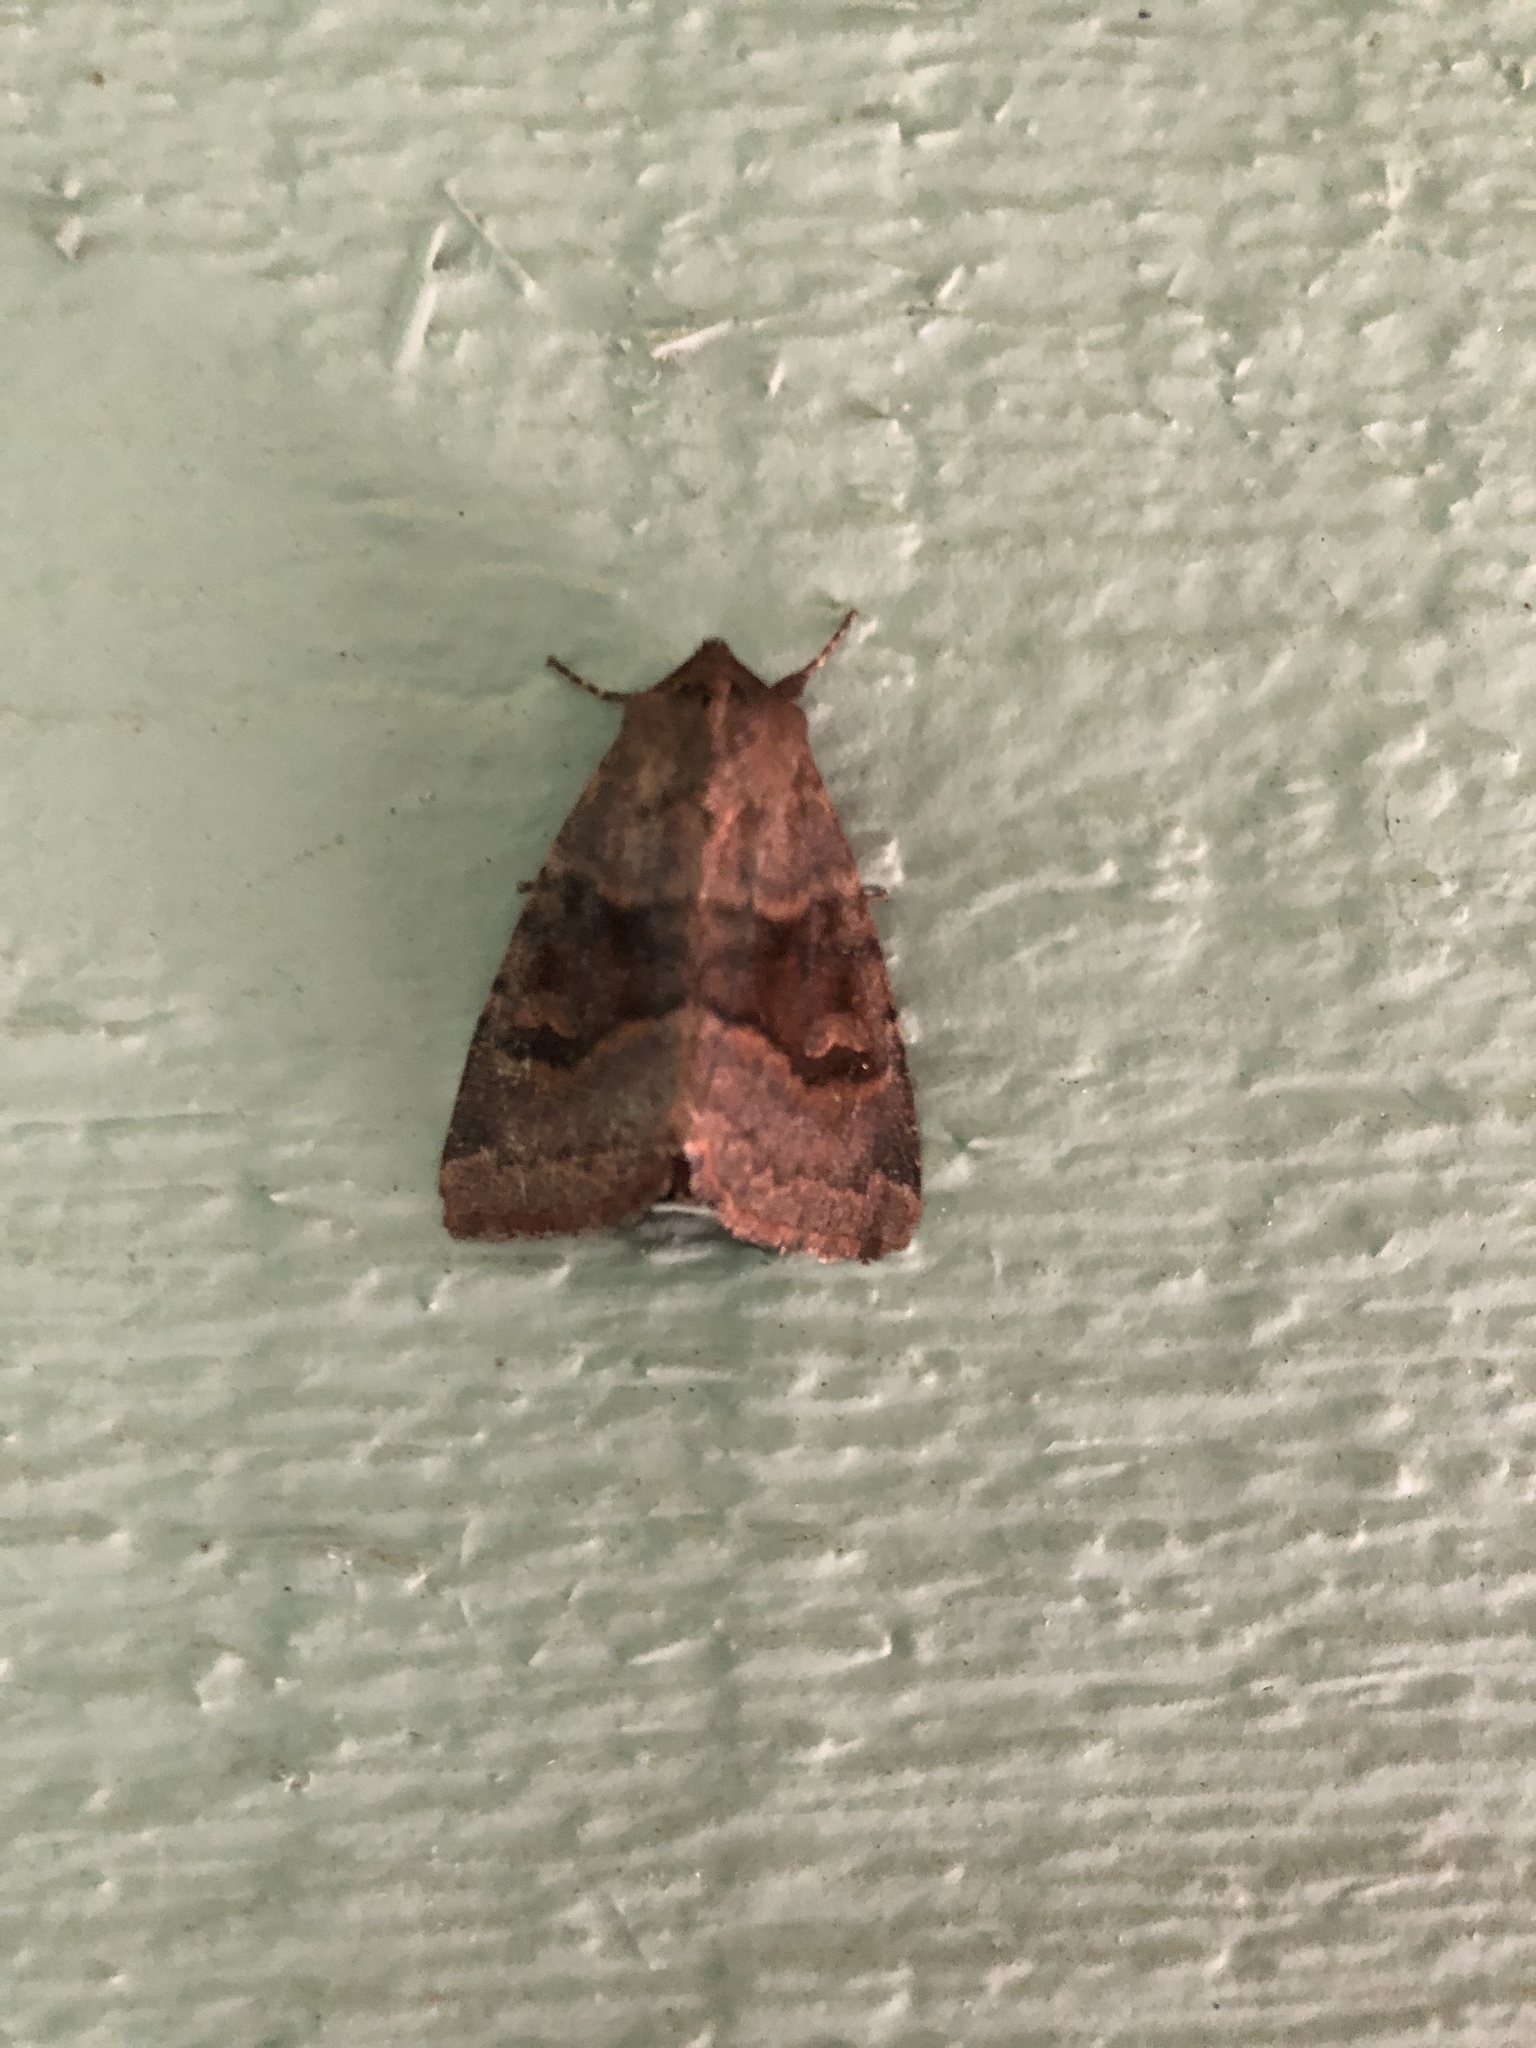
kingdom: Animalia
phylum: Arthropoda
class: Insecta
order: Lepidoptera
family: Noctuidae
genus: Nephelodes
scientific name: Nephelodes minians
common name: Bronzed cutworm
